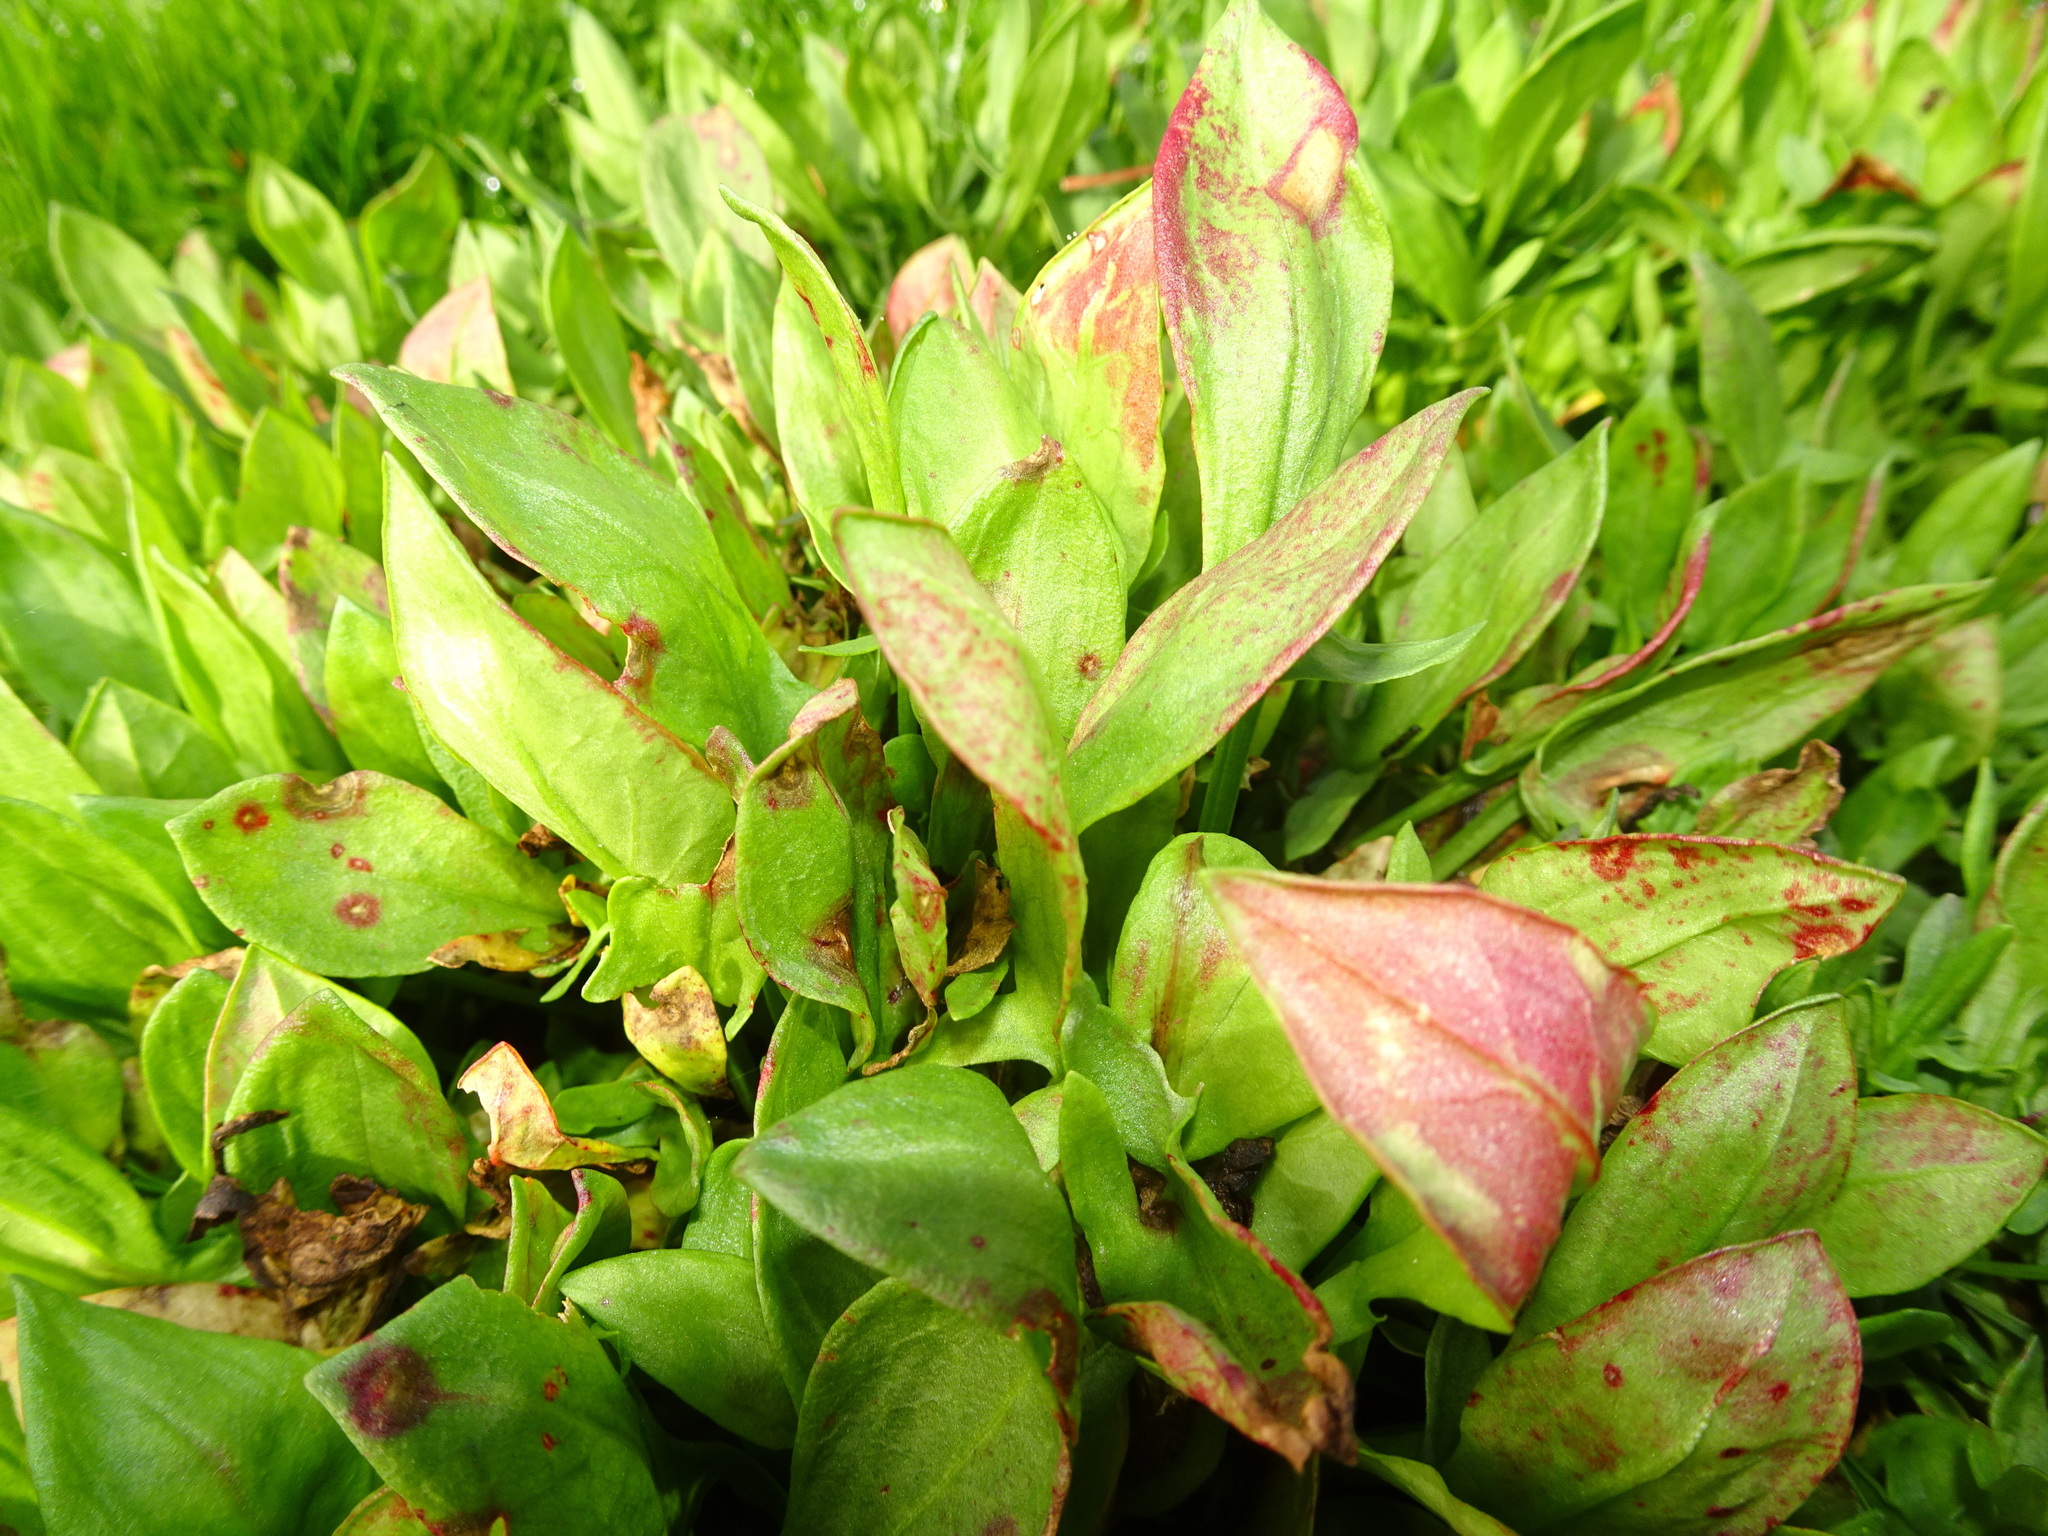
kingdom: Plantae
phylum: Tracheophyta
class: Magnoliopsida
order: Caryophyllales
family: Polygonaceae
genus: Rumex
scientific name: Rumex acetosella
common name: Common sheep sorrel
